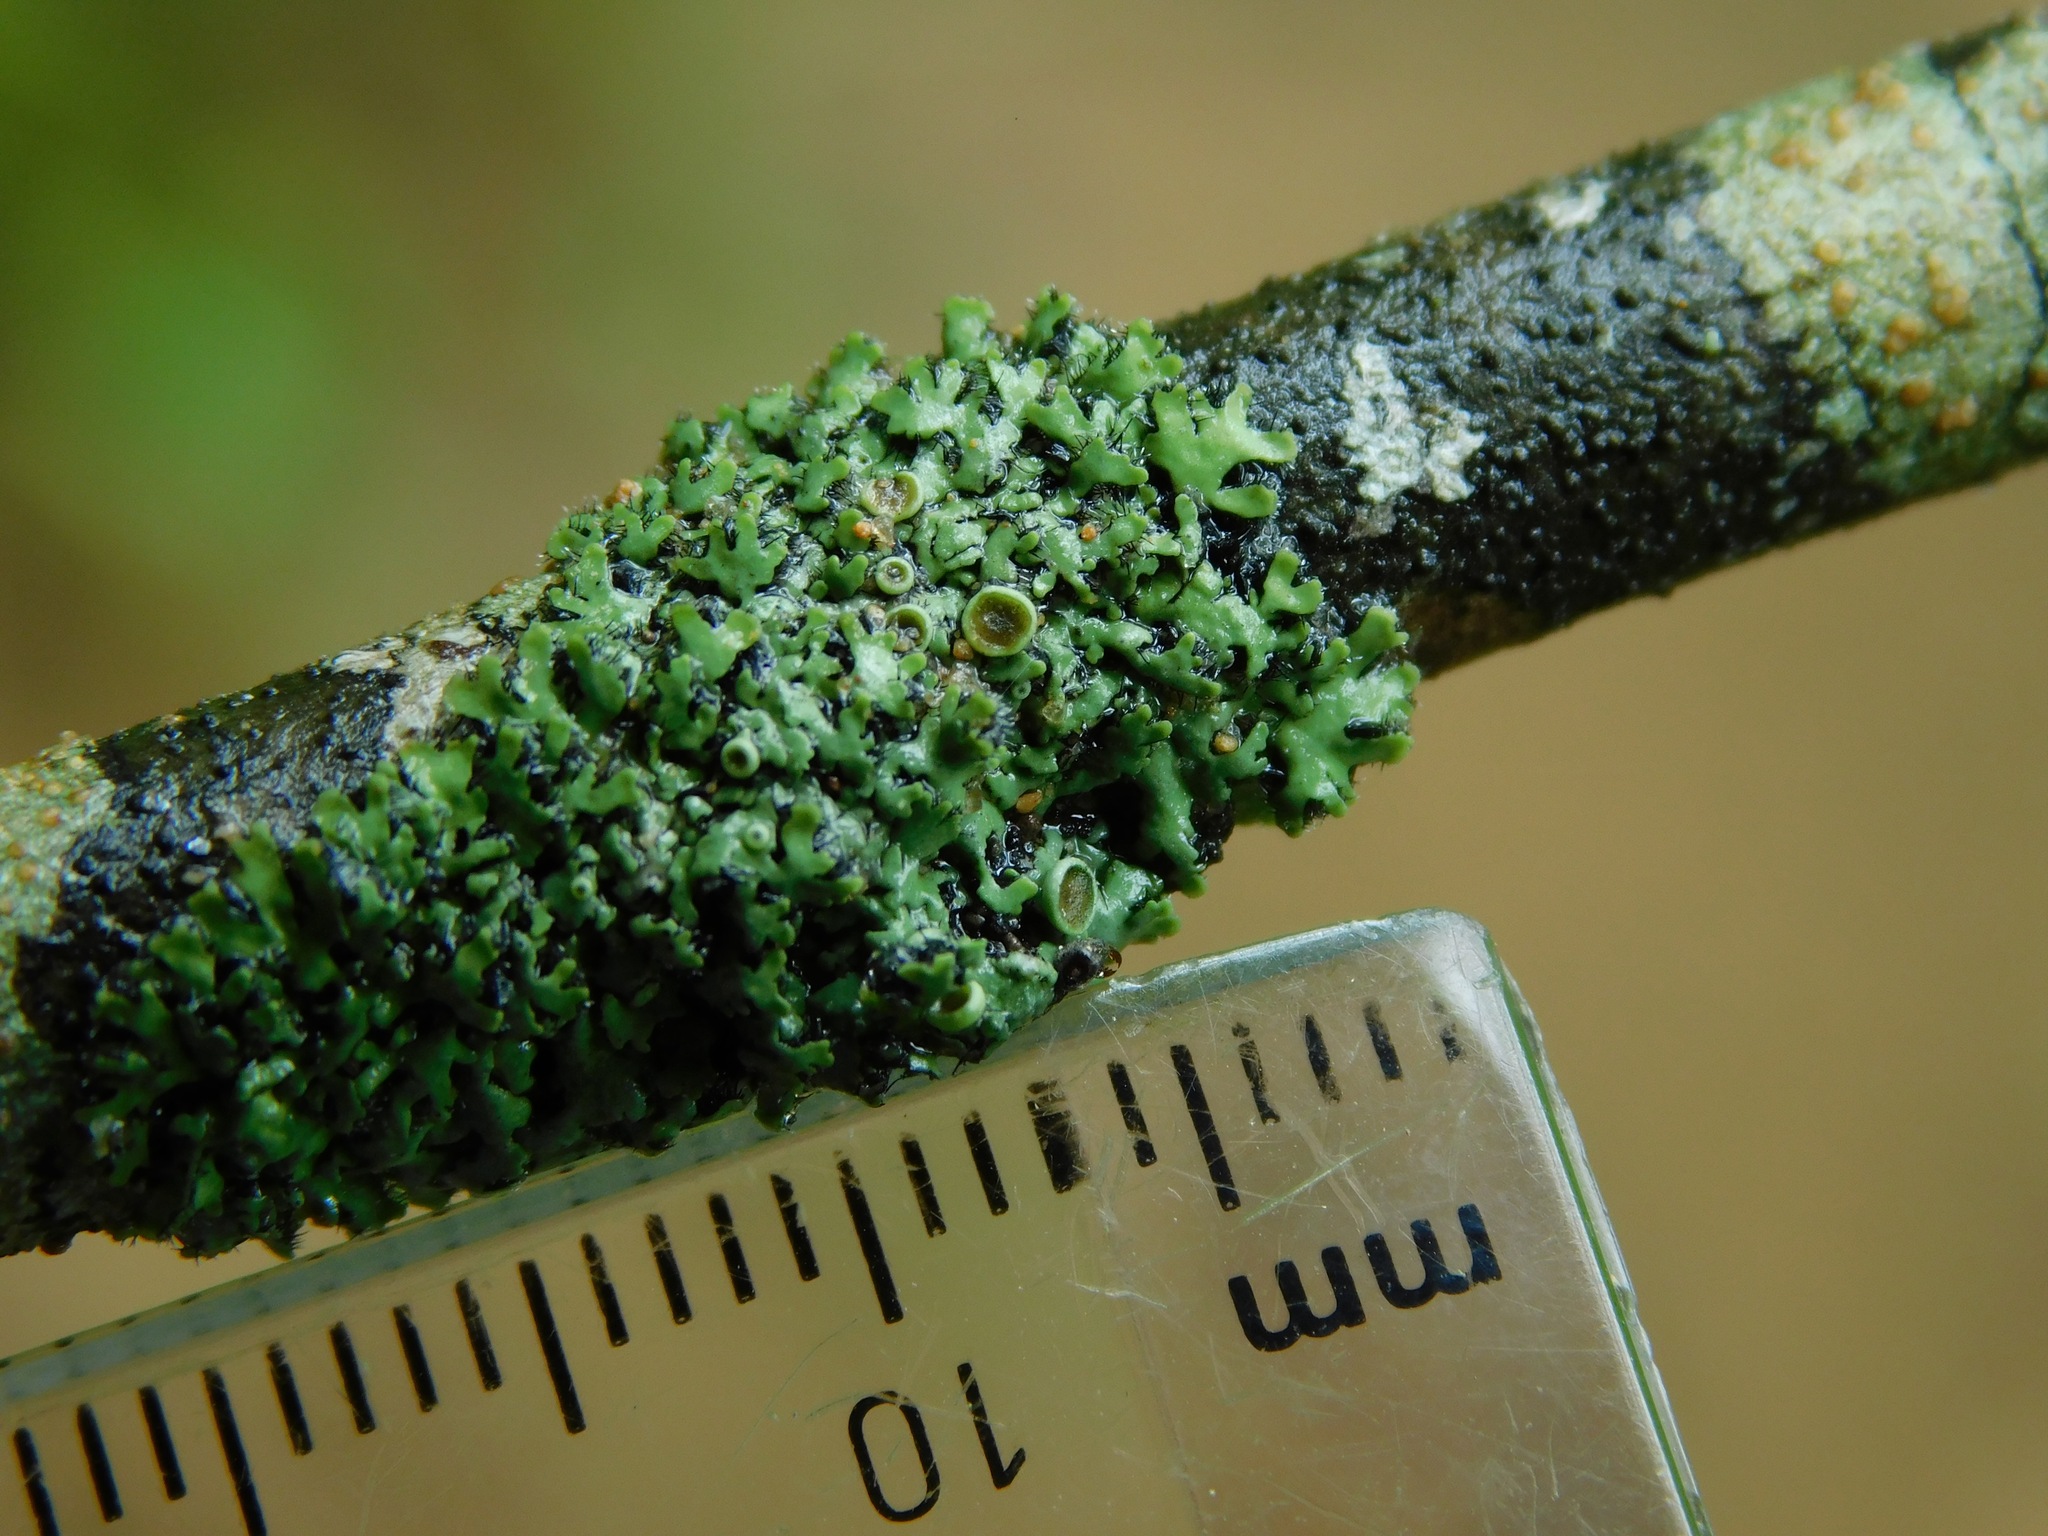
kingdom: Fungi
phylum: Ascomycota
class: Lecanoromycetes
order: Caliciales
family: Physciaceae
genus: Phaeophyscia
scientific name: Phaeophyscia ciliata
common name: Smooth shadow lichen
